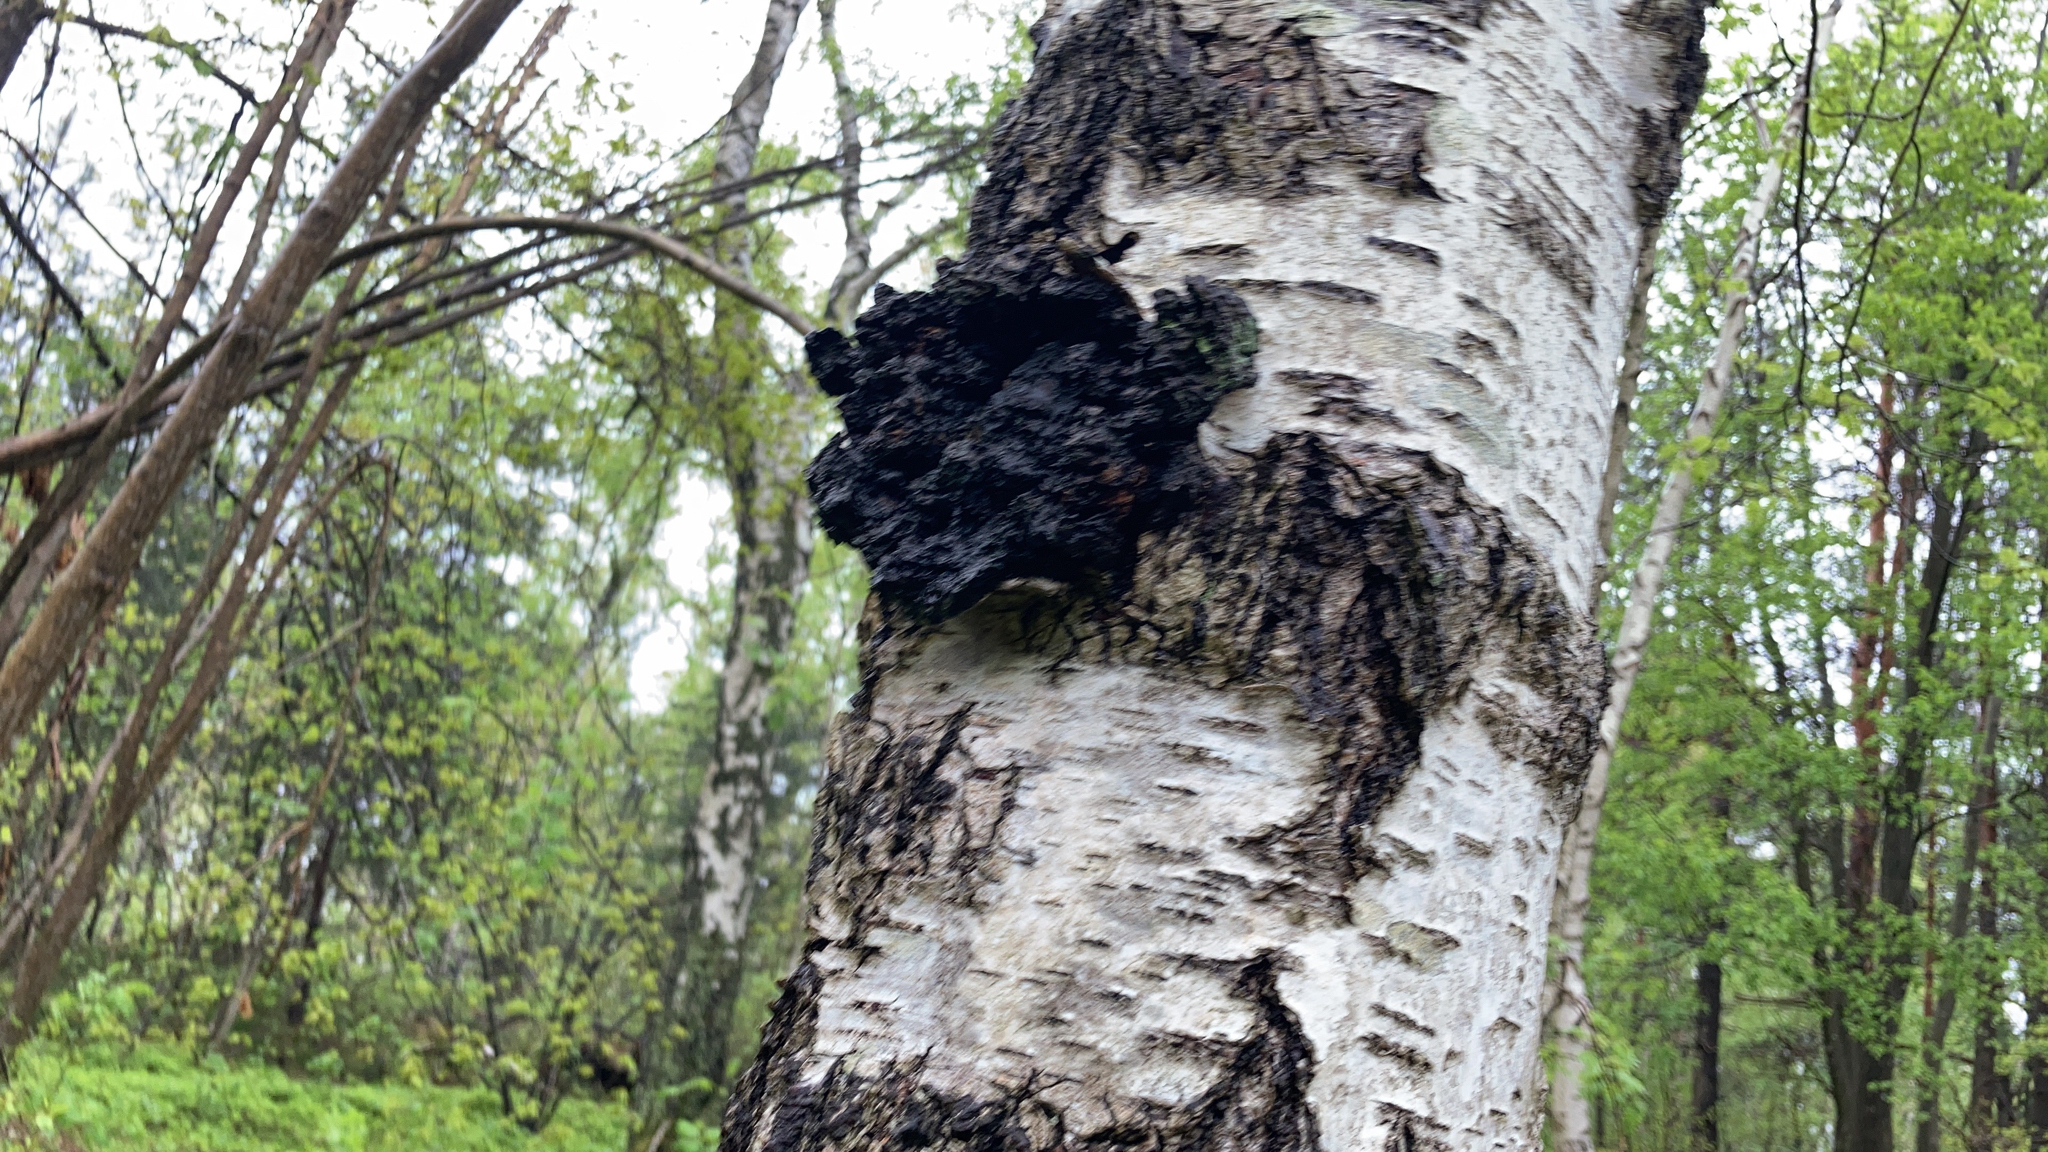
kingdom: Fungi
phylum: Basidiomycota
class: Agaricomycetes
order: Hymenochaetales
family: Hymenochaetaceae
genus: Inonotus
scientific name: Inonotus obliquus
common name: Chaga
